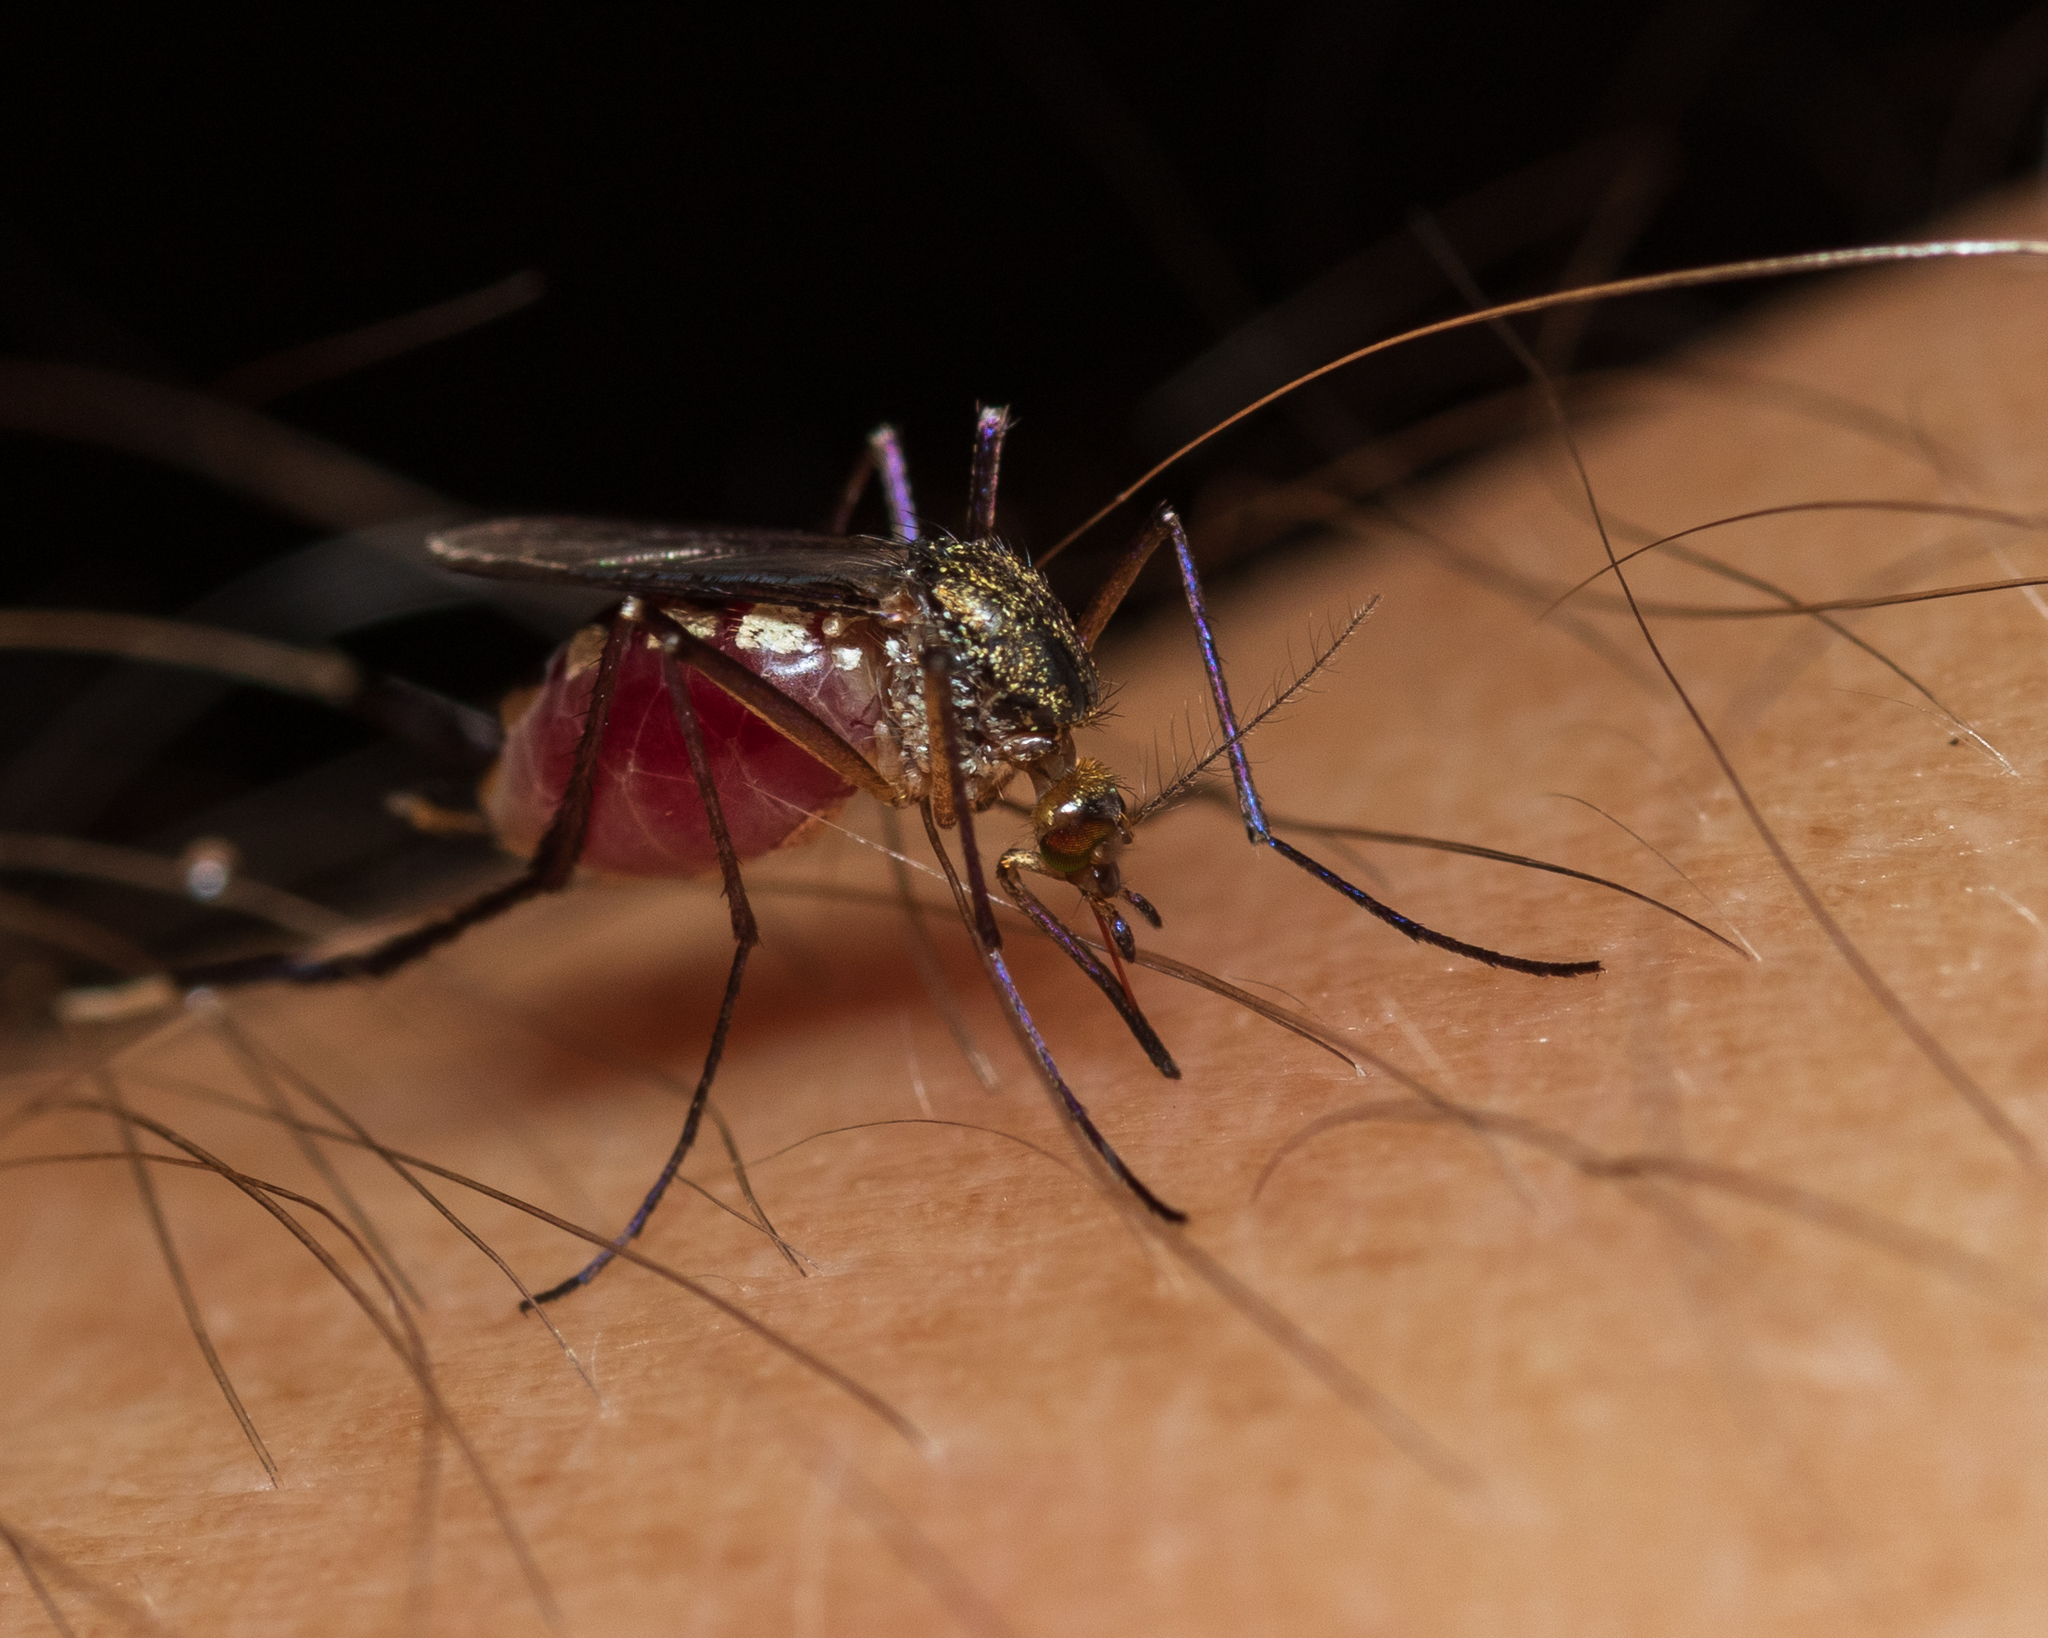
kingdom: Animalia
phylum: Arthropoda
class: Insecta
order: Diptera
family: Culicidae
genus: Psorophora
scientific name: Psorophora ferox
